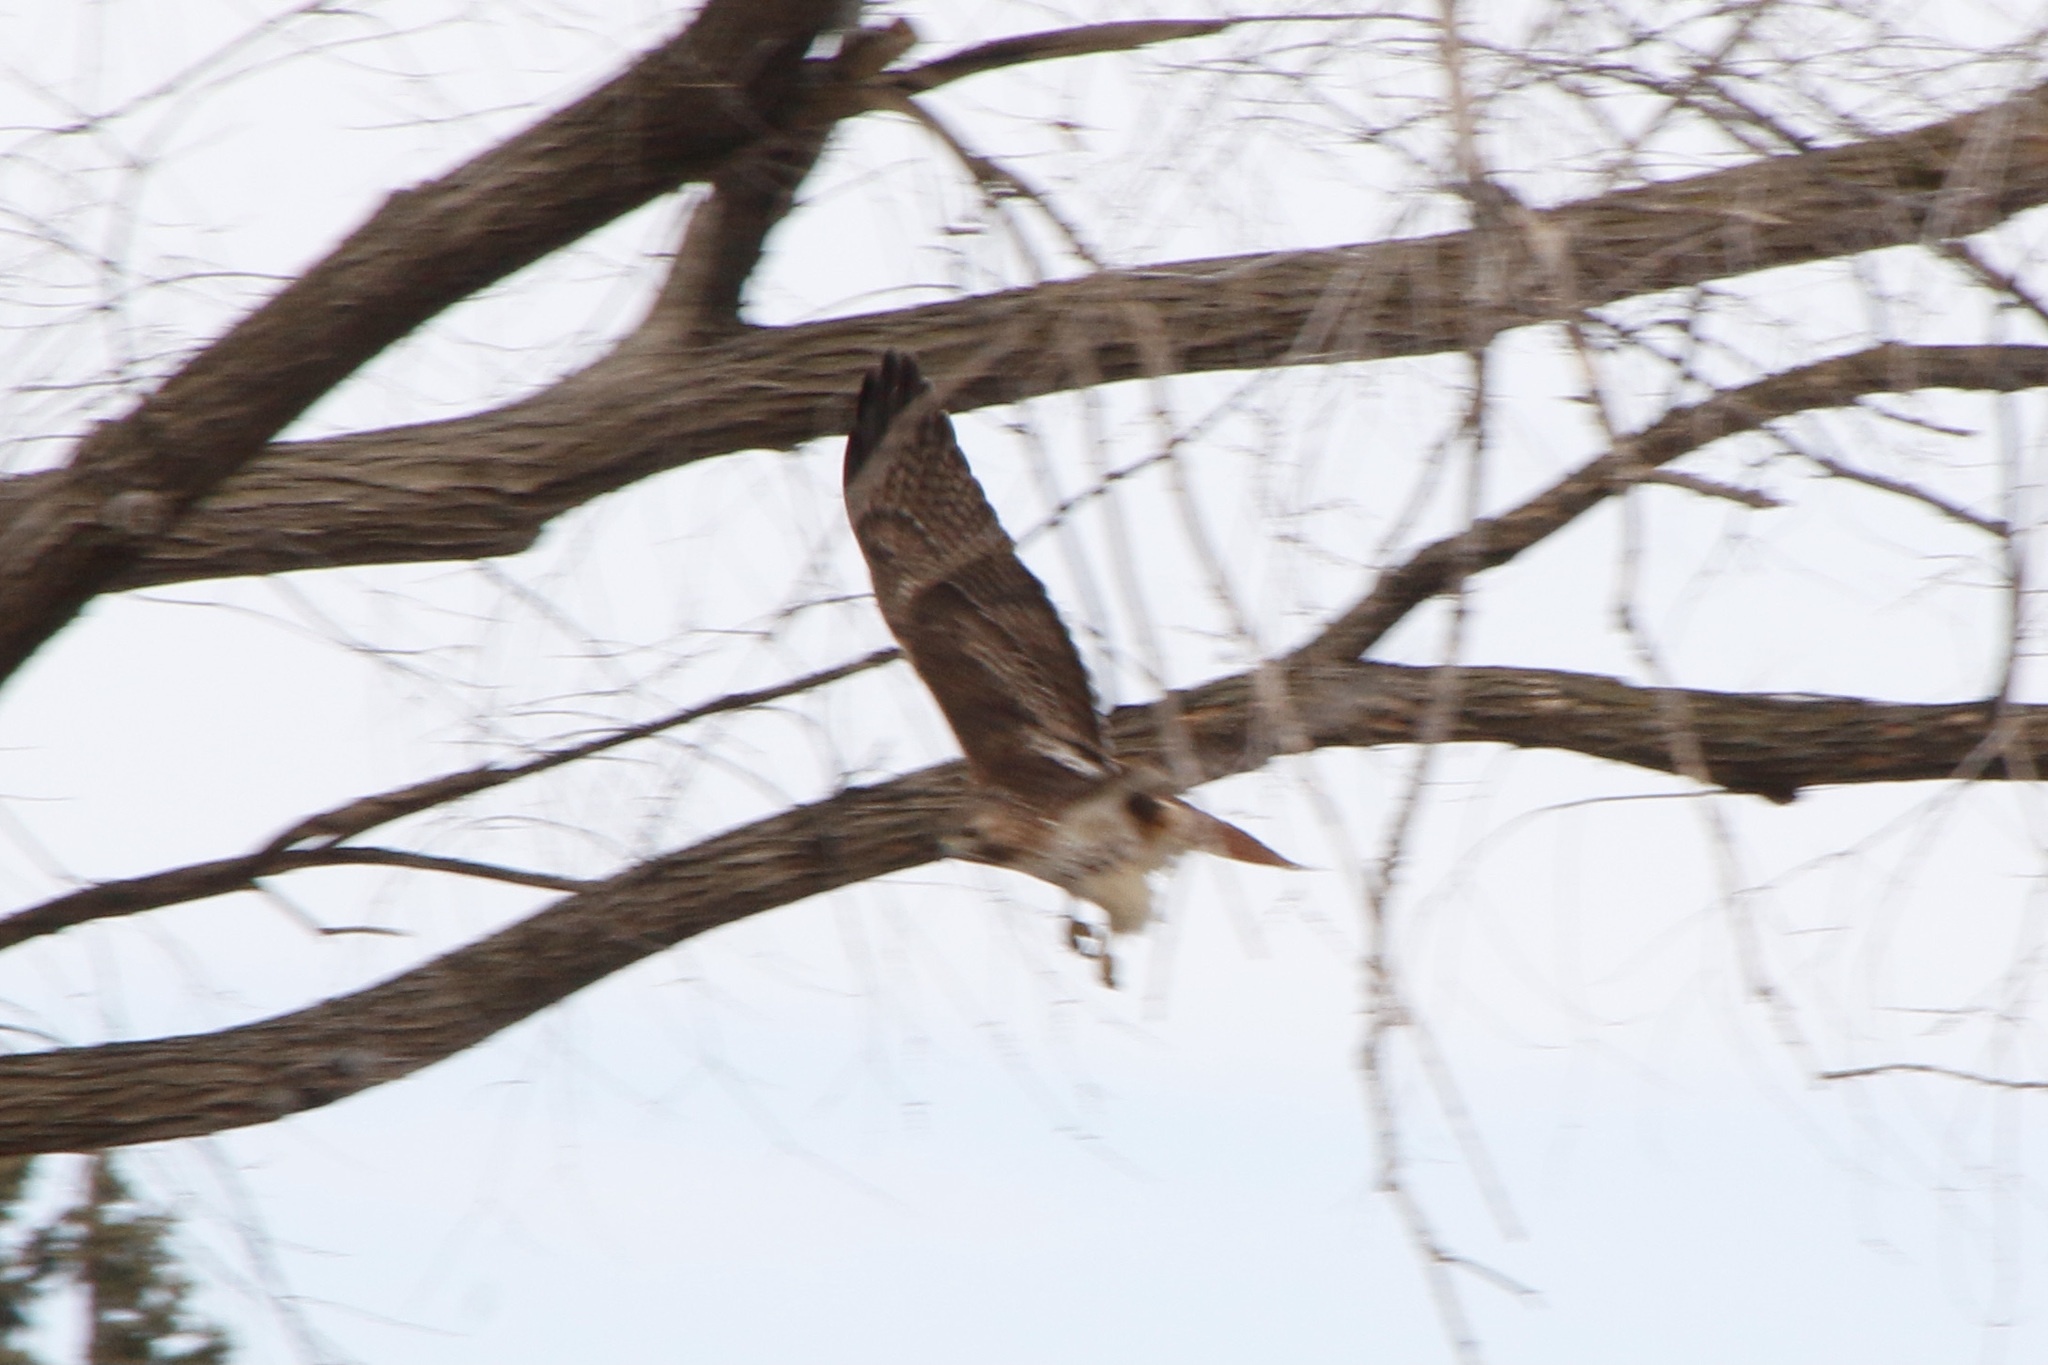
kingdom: Animalia
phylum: Chordata
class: Aves
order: Accipitriformes
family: Accipitridae
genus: Buteo
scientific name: Buteo jamaicensis
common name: Red-tailed hawk
